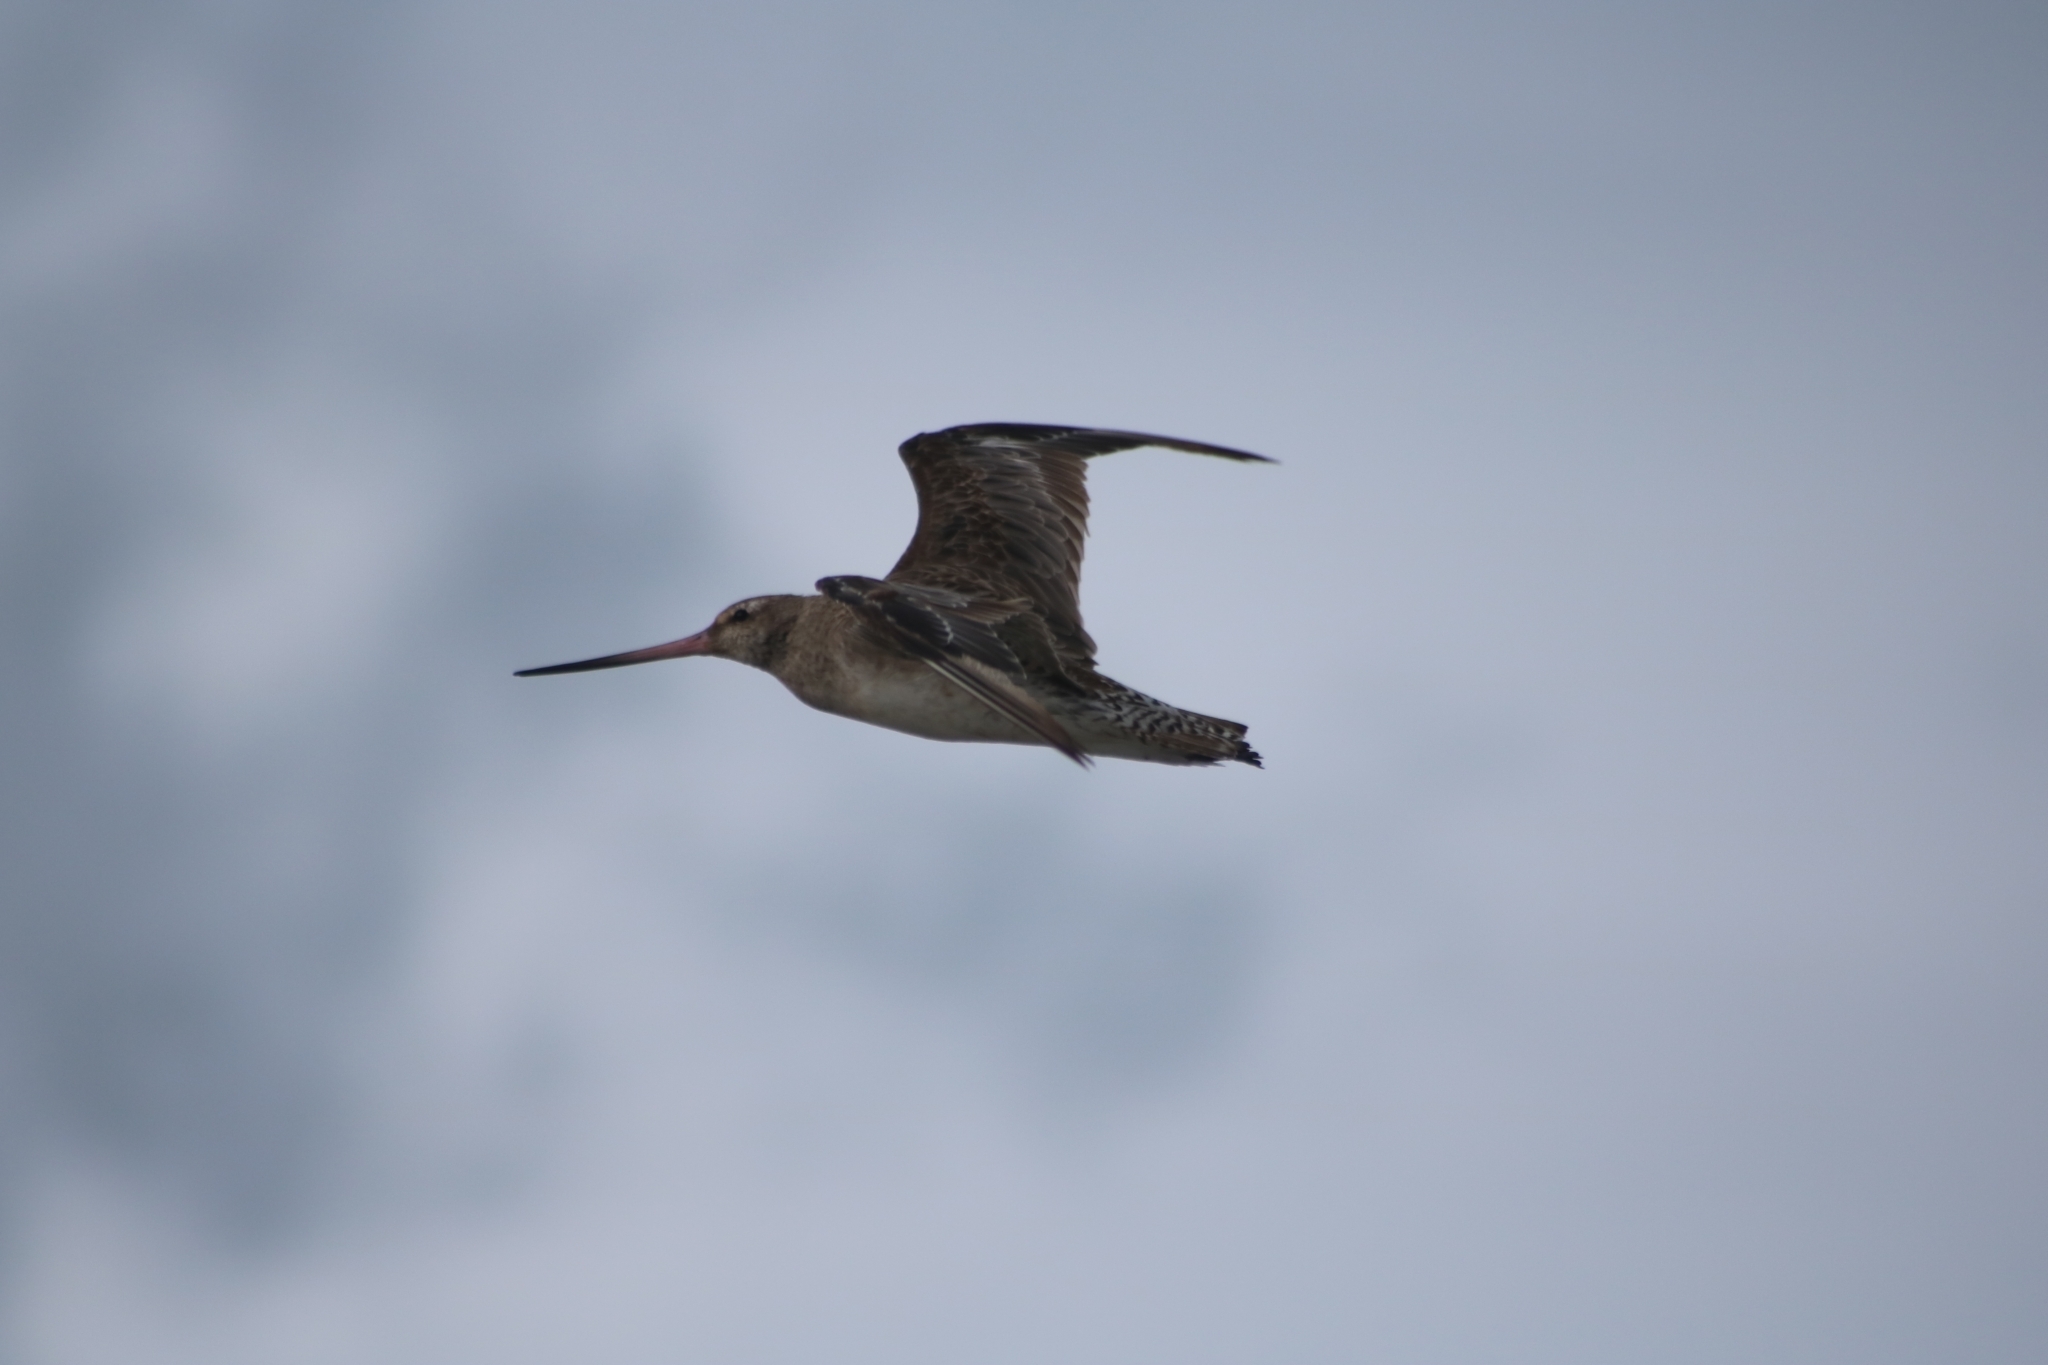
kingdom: Animalia
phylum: Chordata
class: Aves
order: Charadriiformes
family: Scolopacidae
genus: Limosa
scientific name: Limosa lapponica
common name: Bar-tailed godwit
